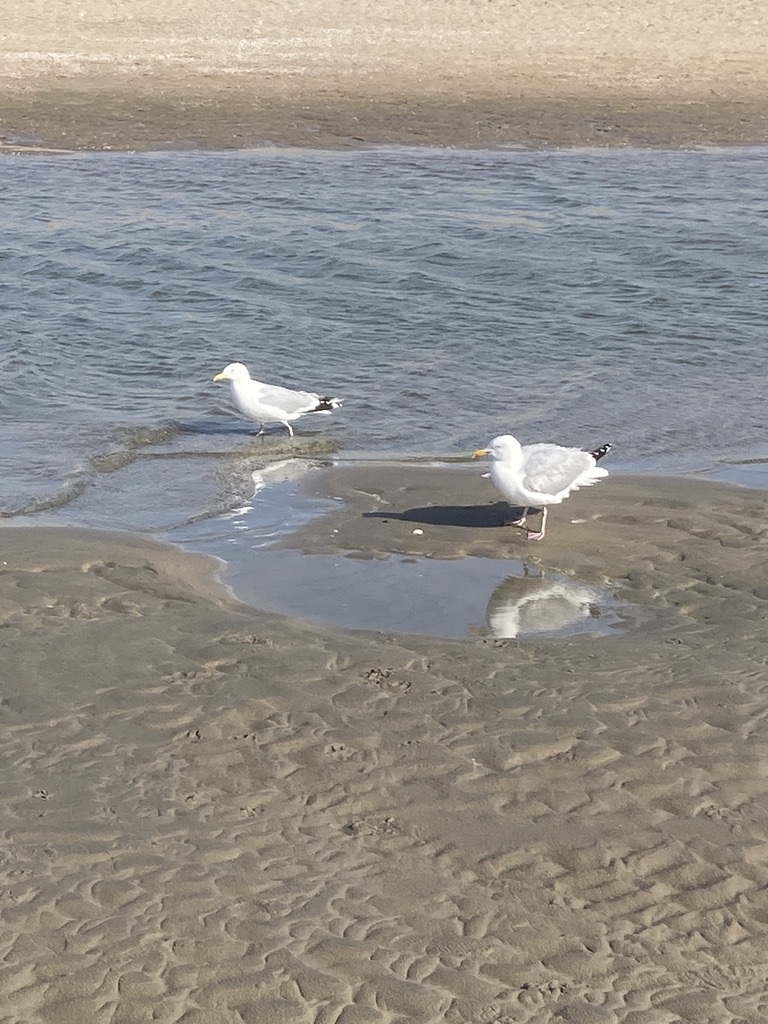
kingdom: Animalia
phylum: Chordata
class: Aves
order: Charadriiformes
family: Laridae
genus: Larus
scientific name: Larus argentatus
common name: Herring gull
